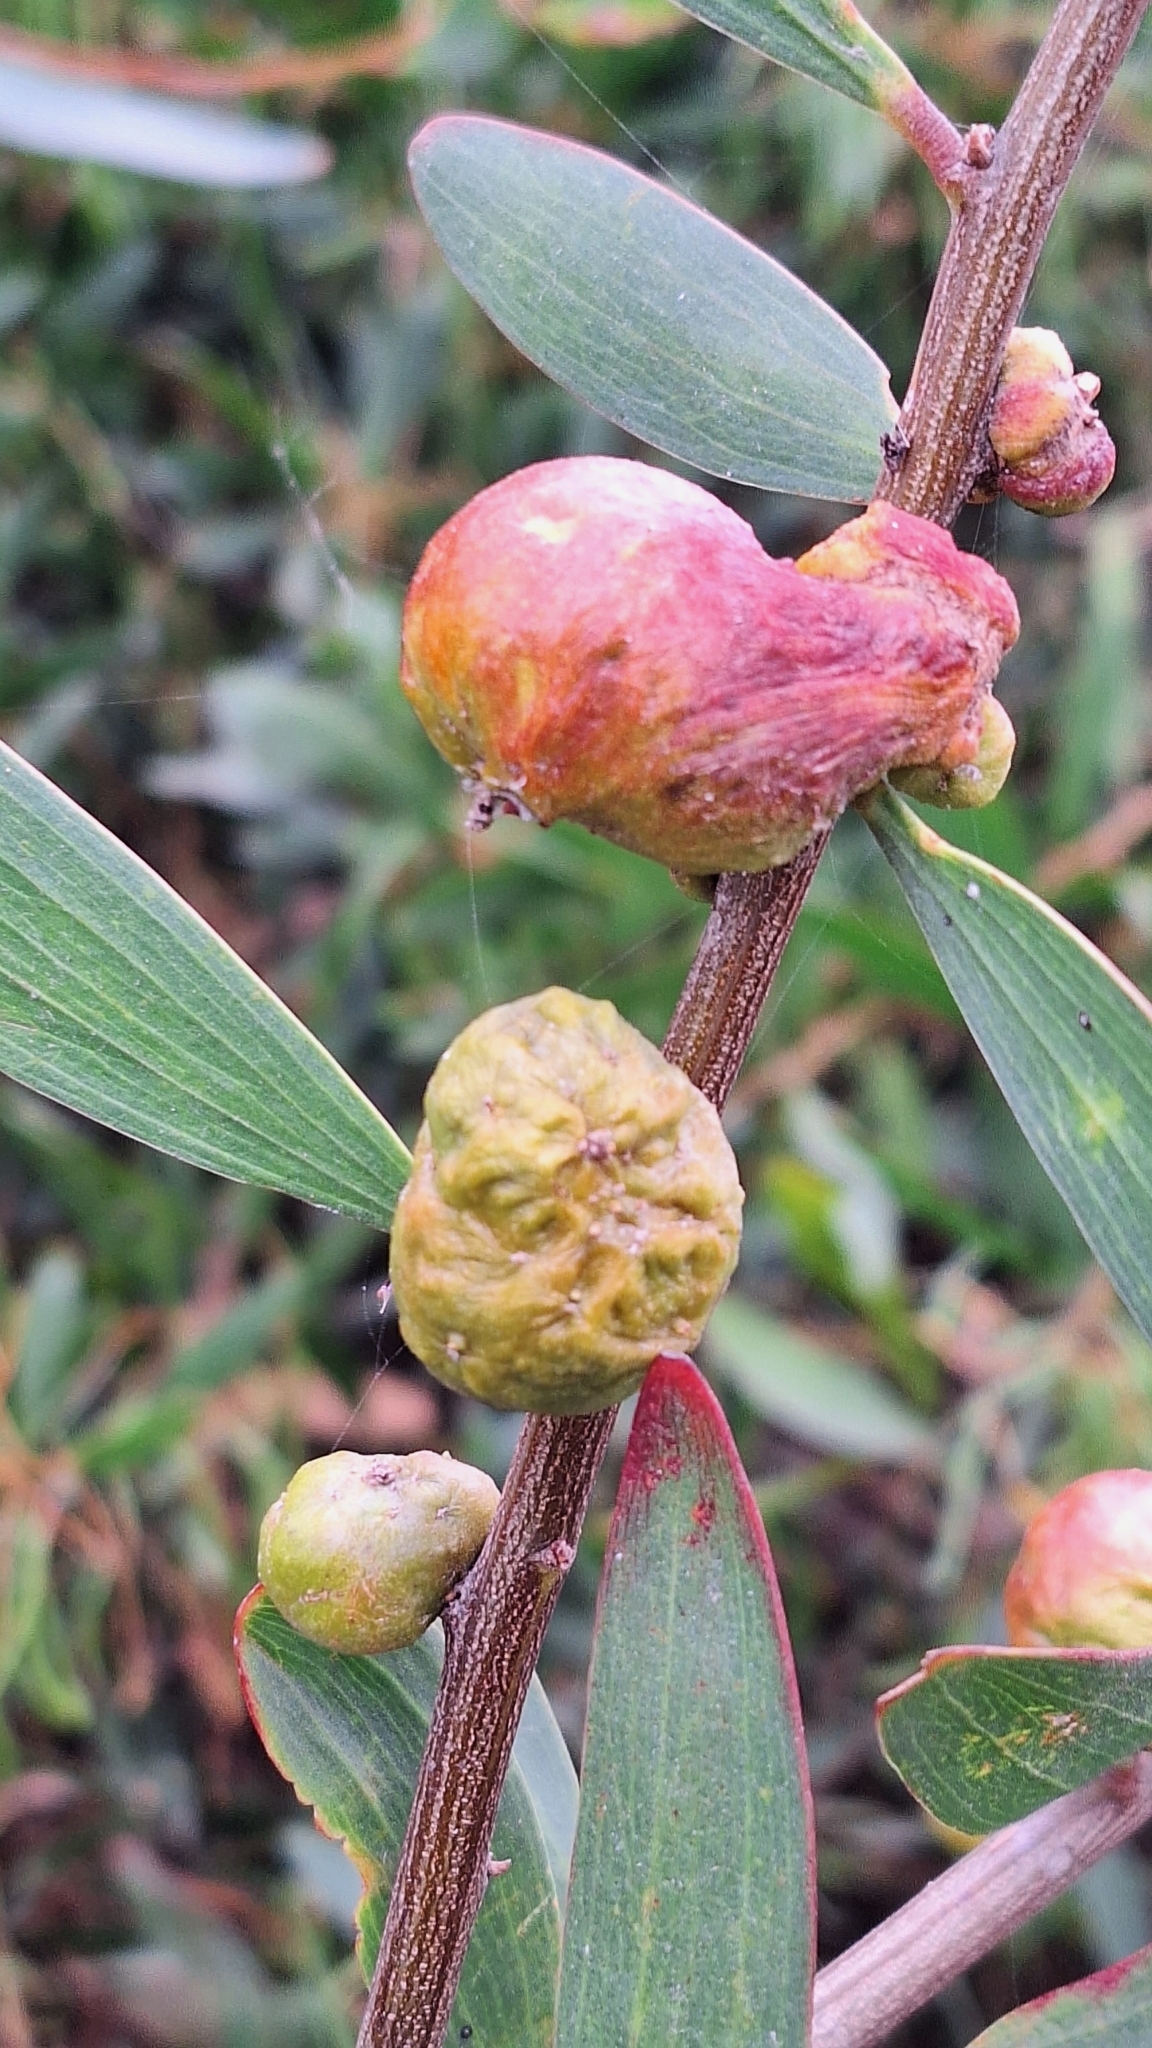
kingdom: Animalia
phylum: Arthropoda
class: Insecta
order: Hymenoptera
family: Pteromalidae
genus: Trichilogaster
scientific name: Trichilogaster acaciaelongifoliae
